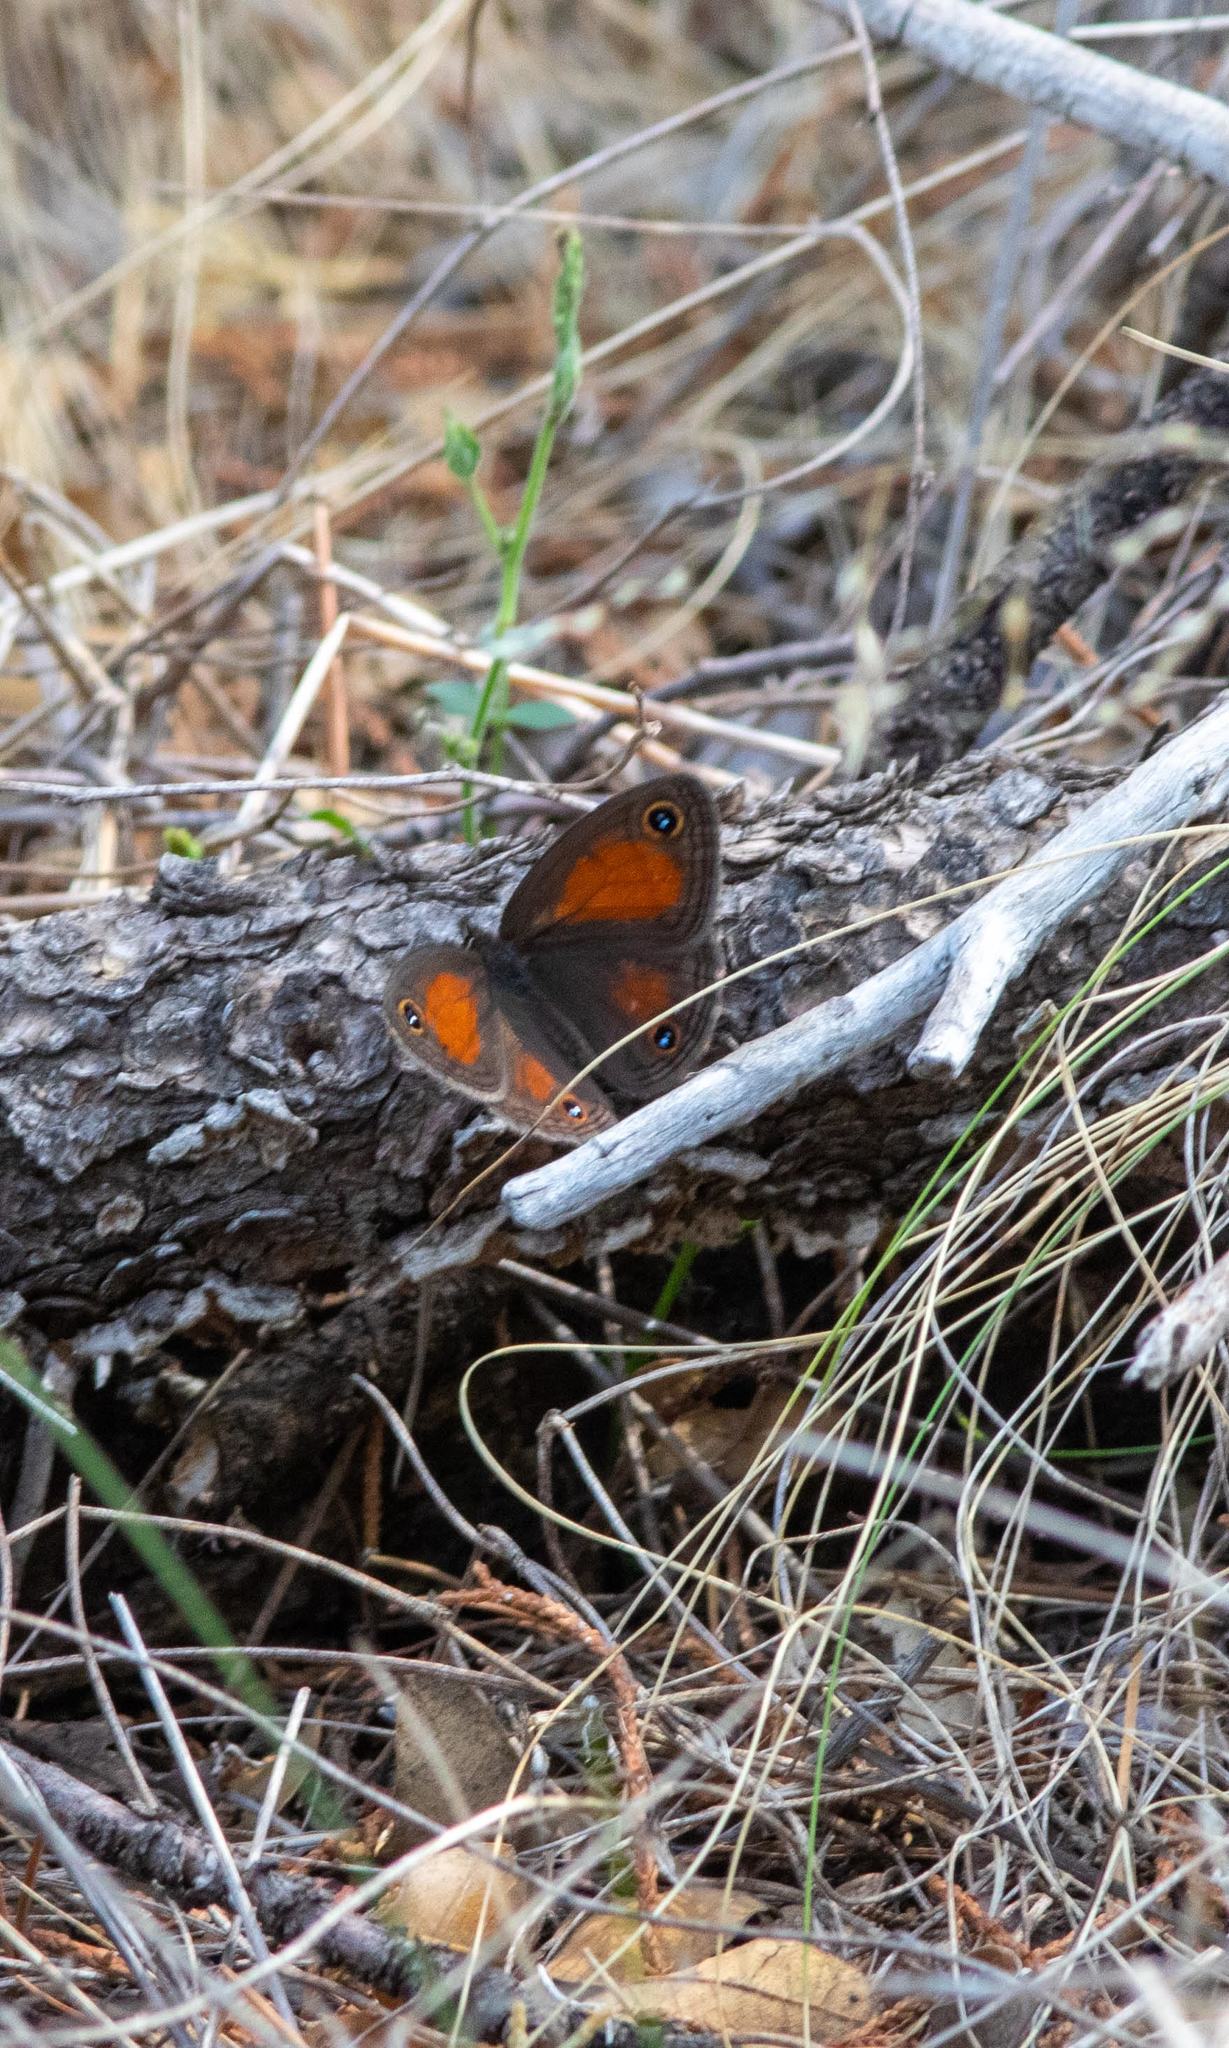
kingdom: Animalia
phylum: Arthropoda
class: Insecta
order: Lepidoptera
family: Nymphalidae
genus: Euptychia
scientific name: Euptychia Cissia rubricata
